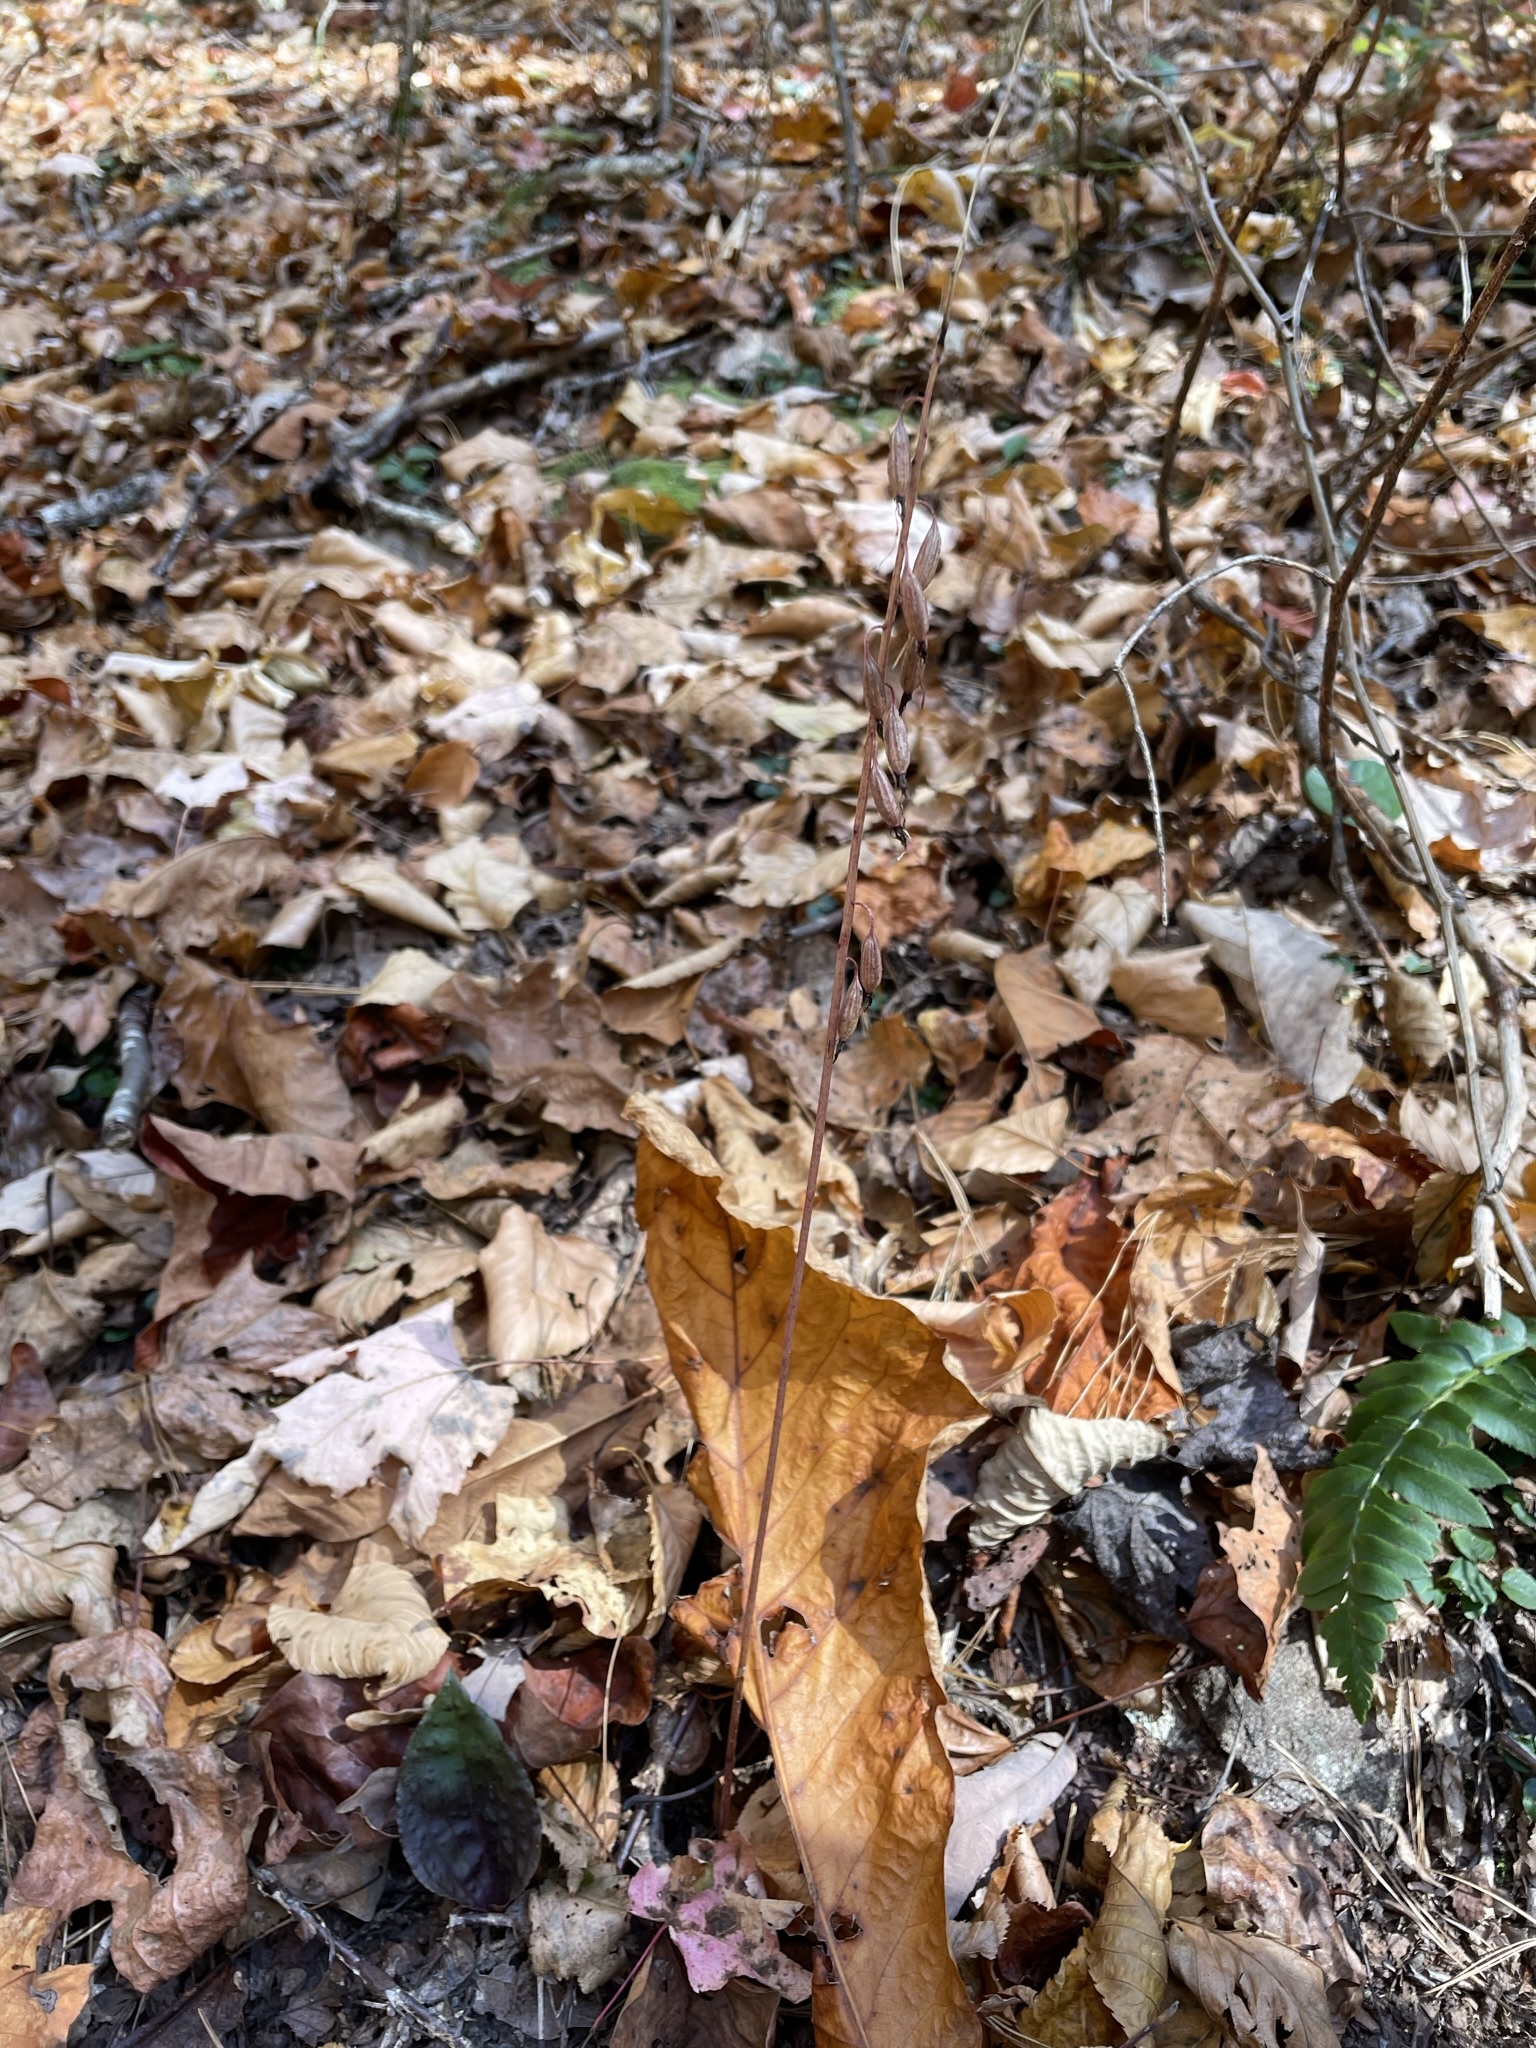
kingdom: Plantae
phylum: Tracheophyta
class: Liliopsida
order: Asparagales
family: Orchidaceae
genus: Tipularia
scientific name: Tipularia discolor
